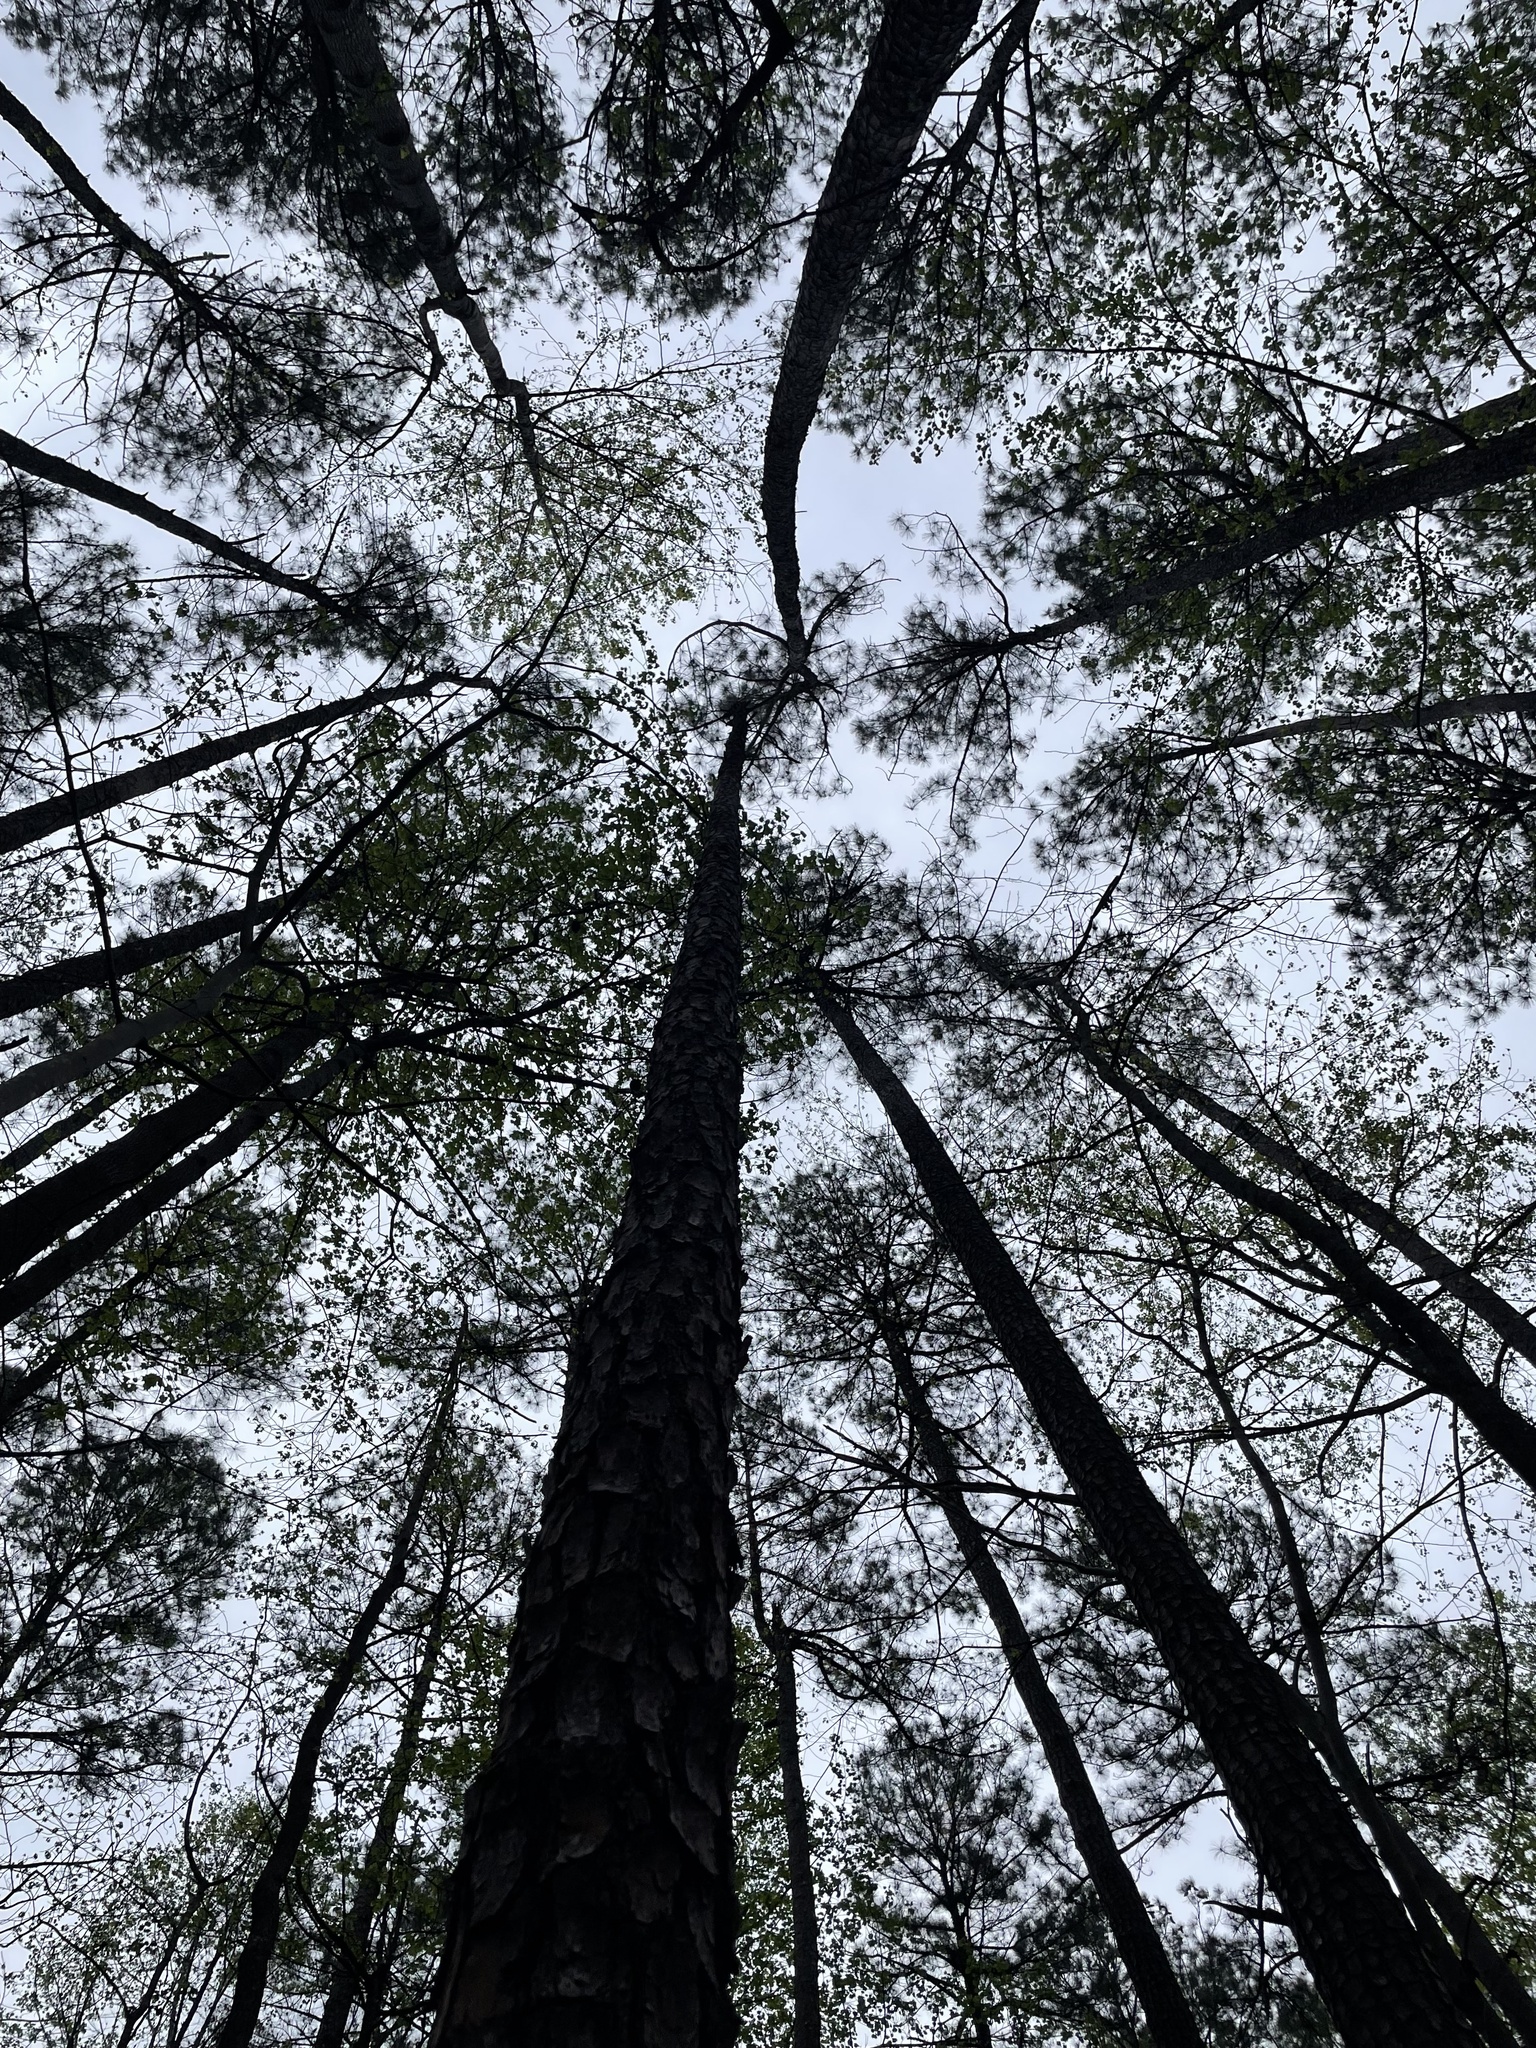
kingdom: Plantae
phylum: Tracheophyta
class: Pinopsida
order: Pinales
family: Pinaceae
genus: Pinus
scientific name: Pinus echinata
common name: Shortleaf pine
